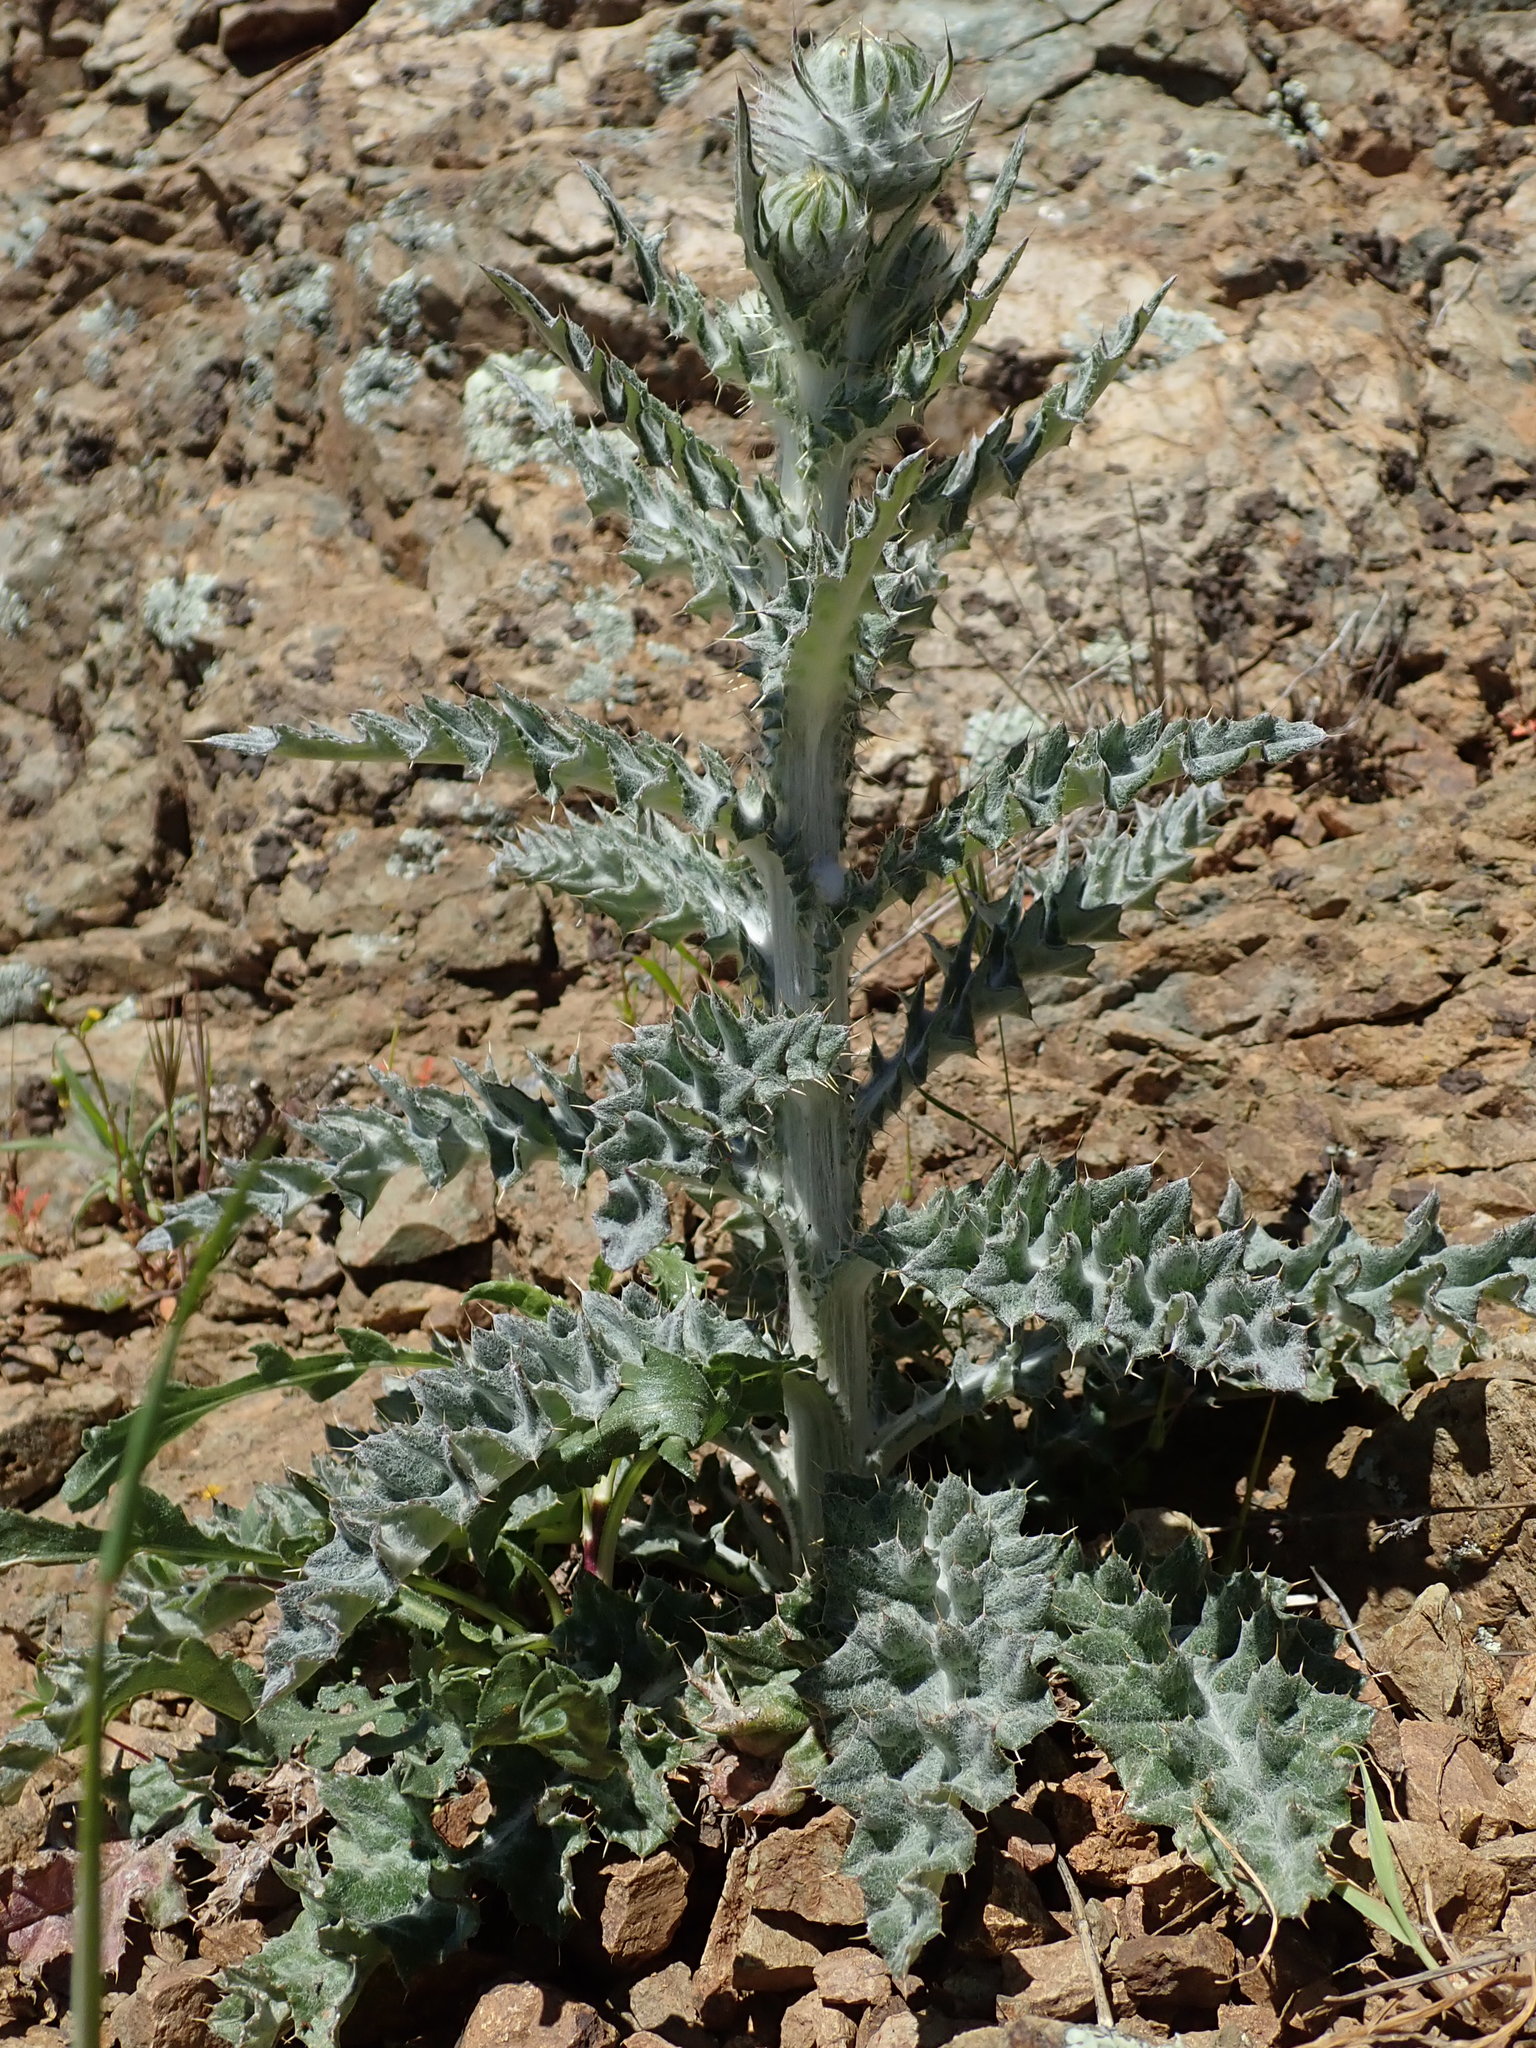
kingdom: Plantae
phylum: Tracheophyta
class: Magnoliopsida
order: Asterales
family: Asteraceae
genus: Cirsium
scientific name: Cirsium occidentale
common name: Western thistle
